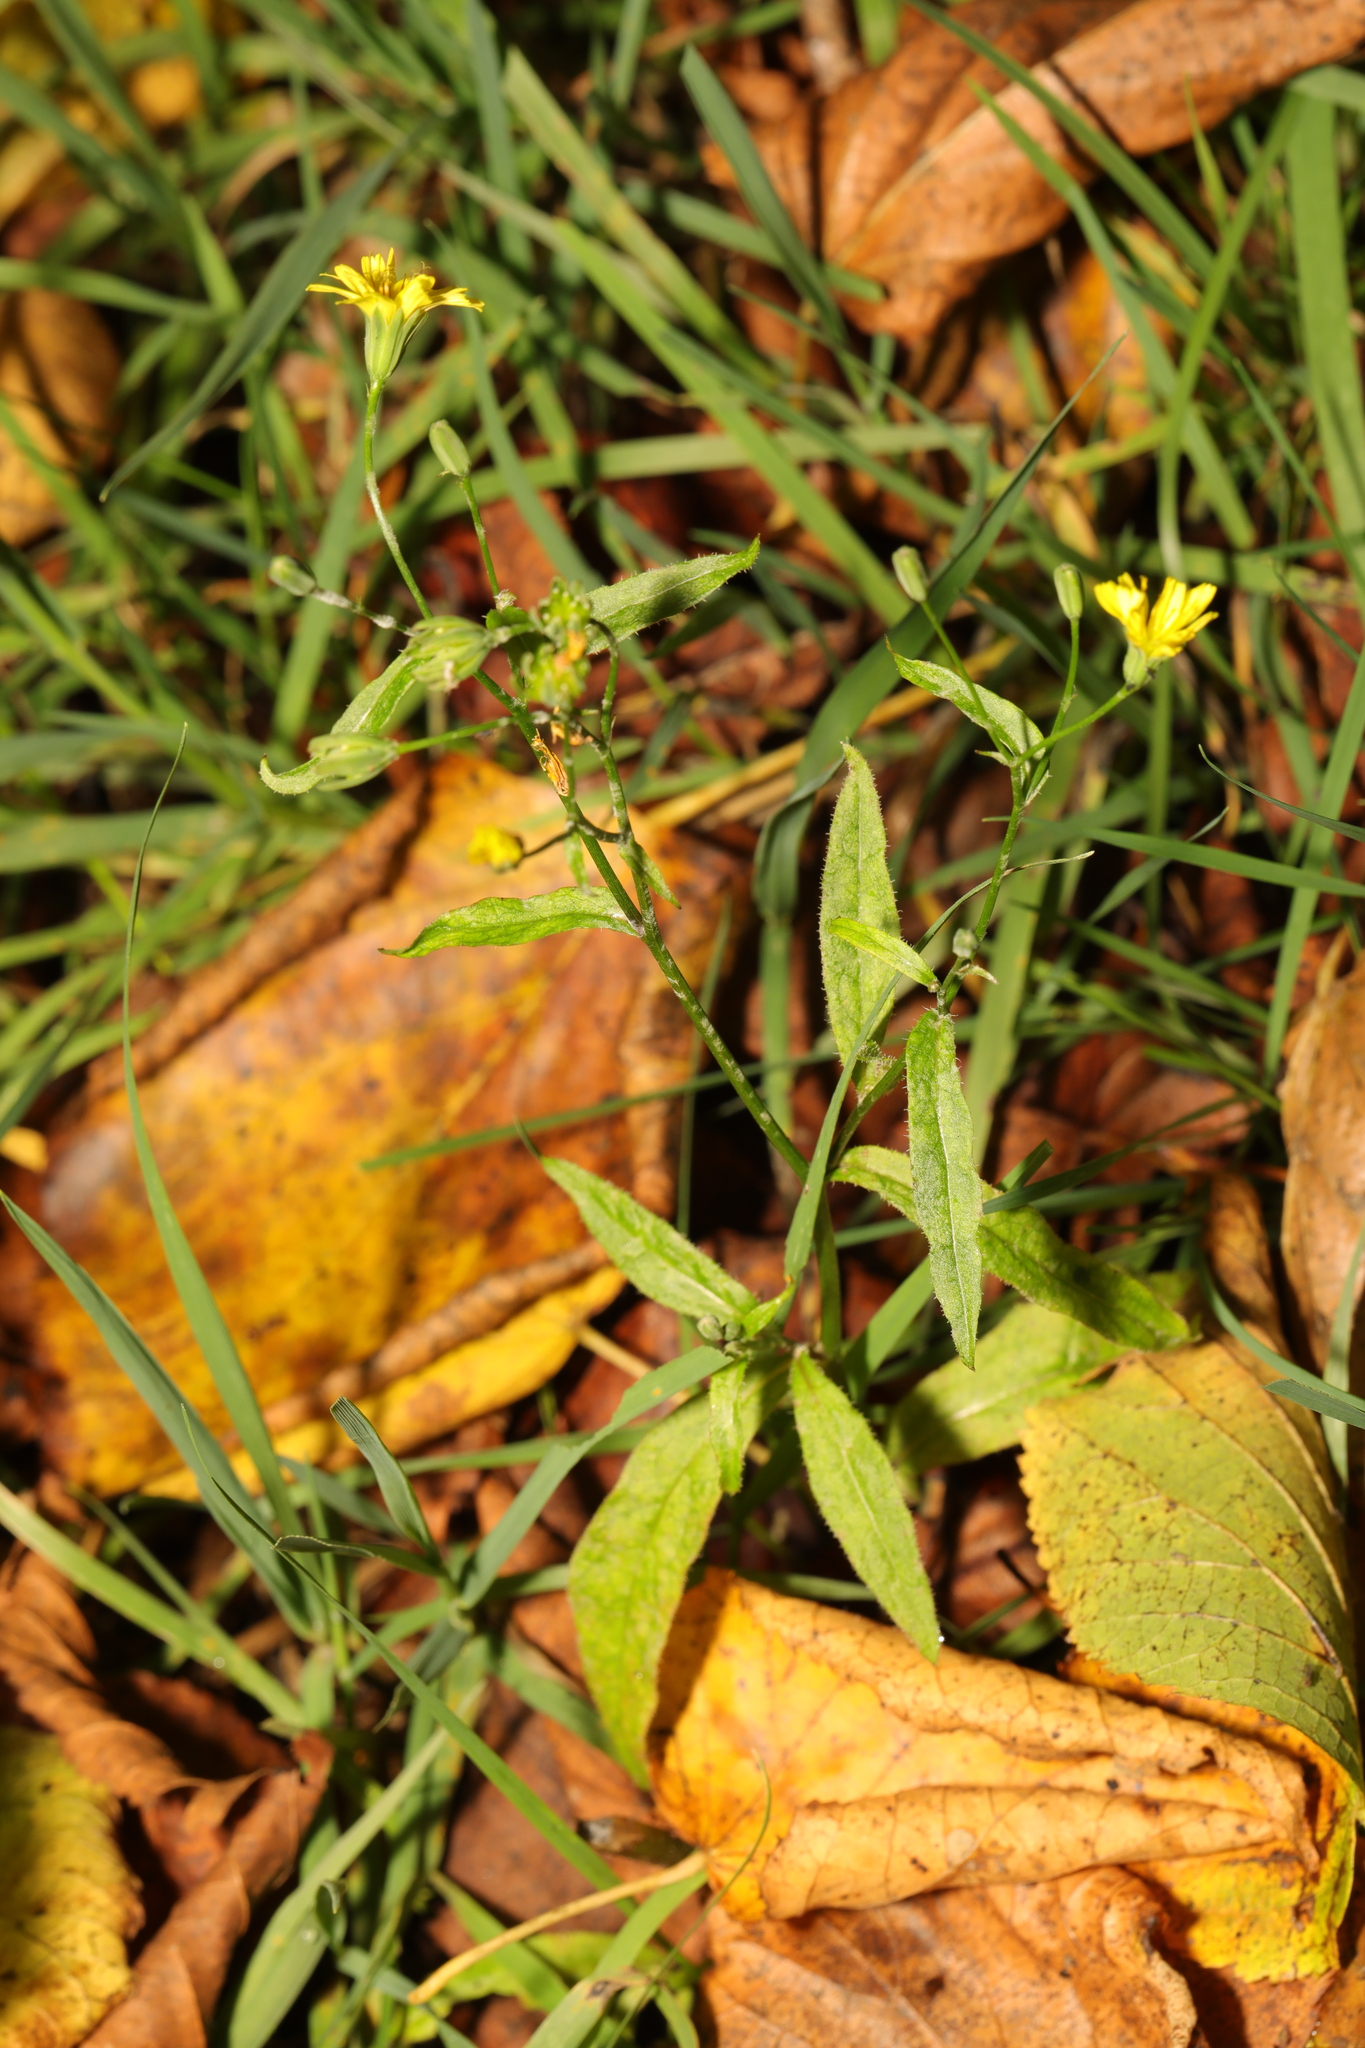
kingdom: Plantae
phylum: Tracheophyta
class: Magnoliopsida
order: Asterales
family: Asteraceae
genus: Lapsana
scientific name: Lapsana communis
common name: Nipplewort
